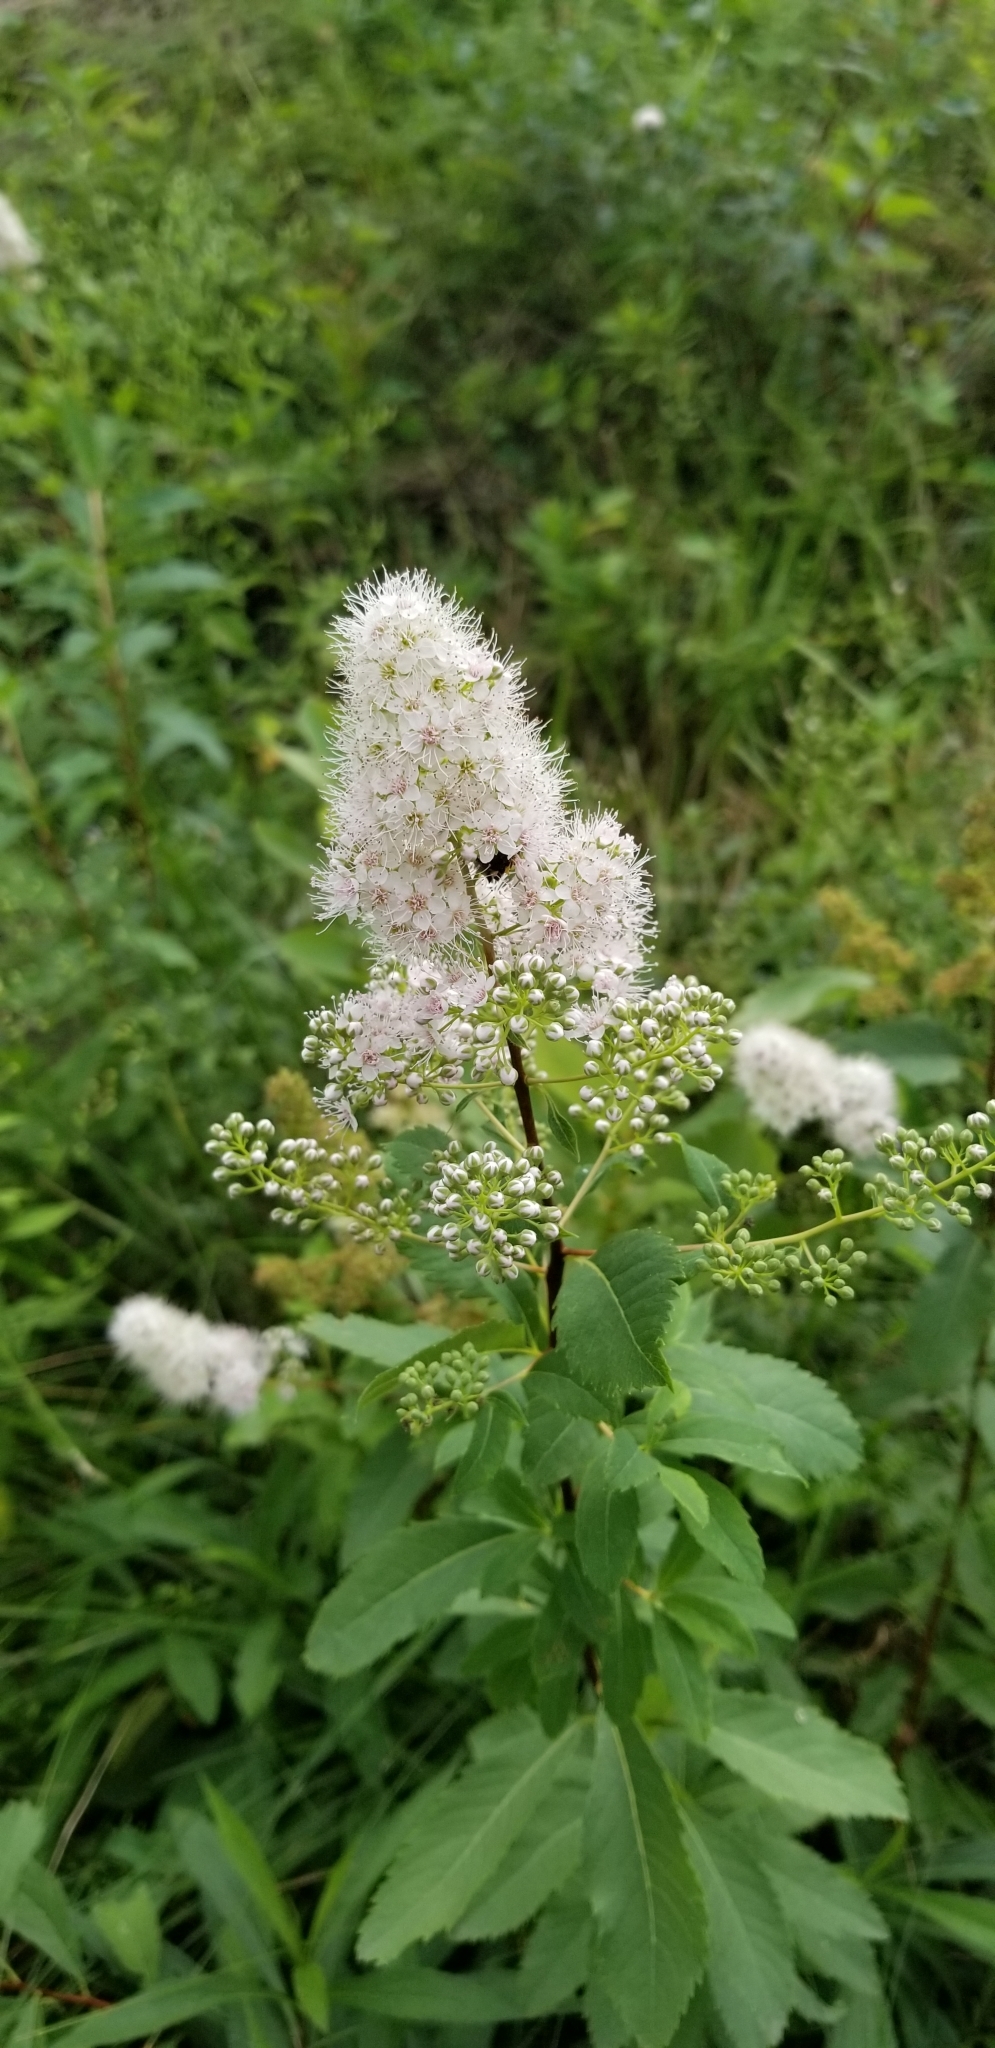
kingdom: Plantae
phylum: Tracheophyta
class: Magnoliopsida
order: Rosales
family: Rosaceae
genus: Spiraea
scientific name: Spiraea alba
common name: Pale bridewort
